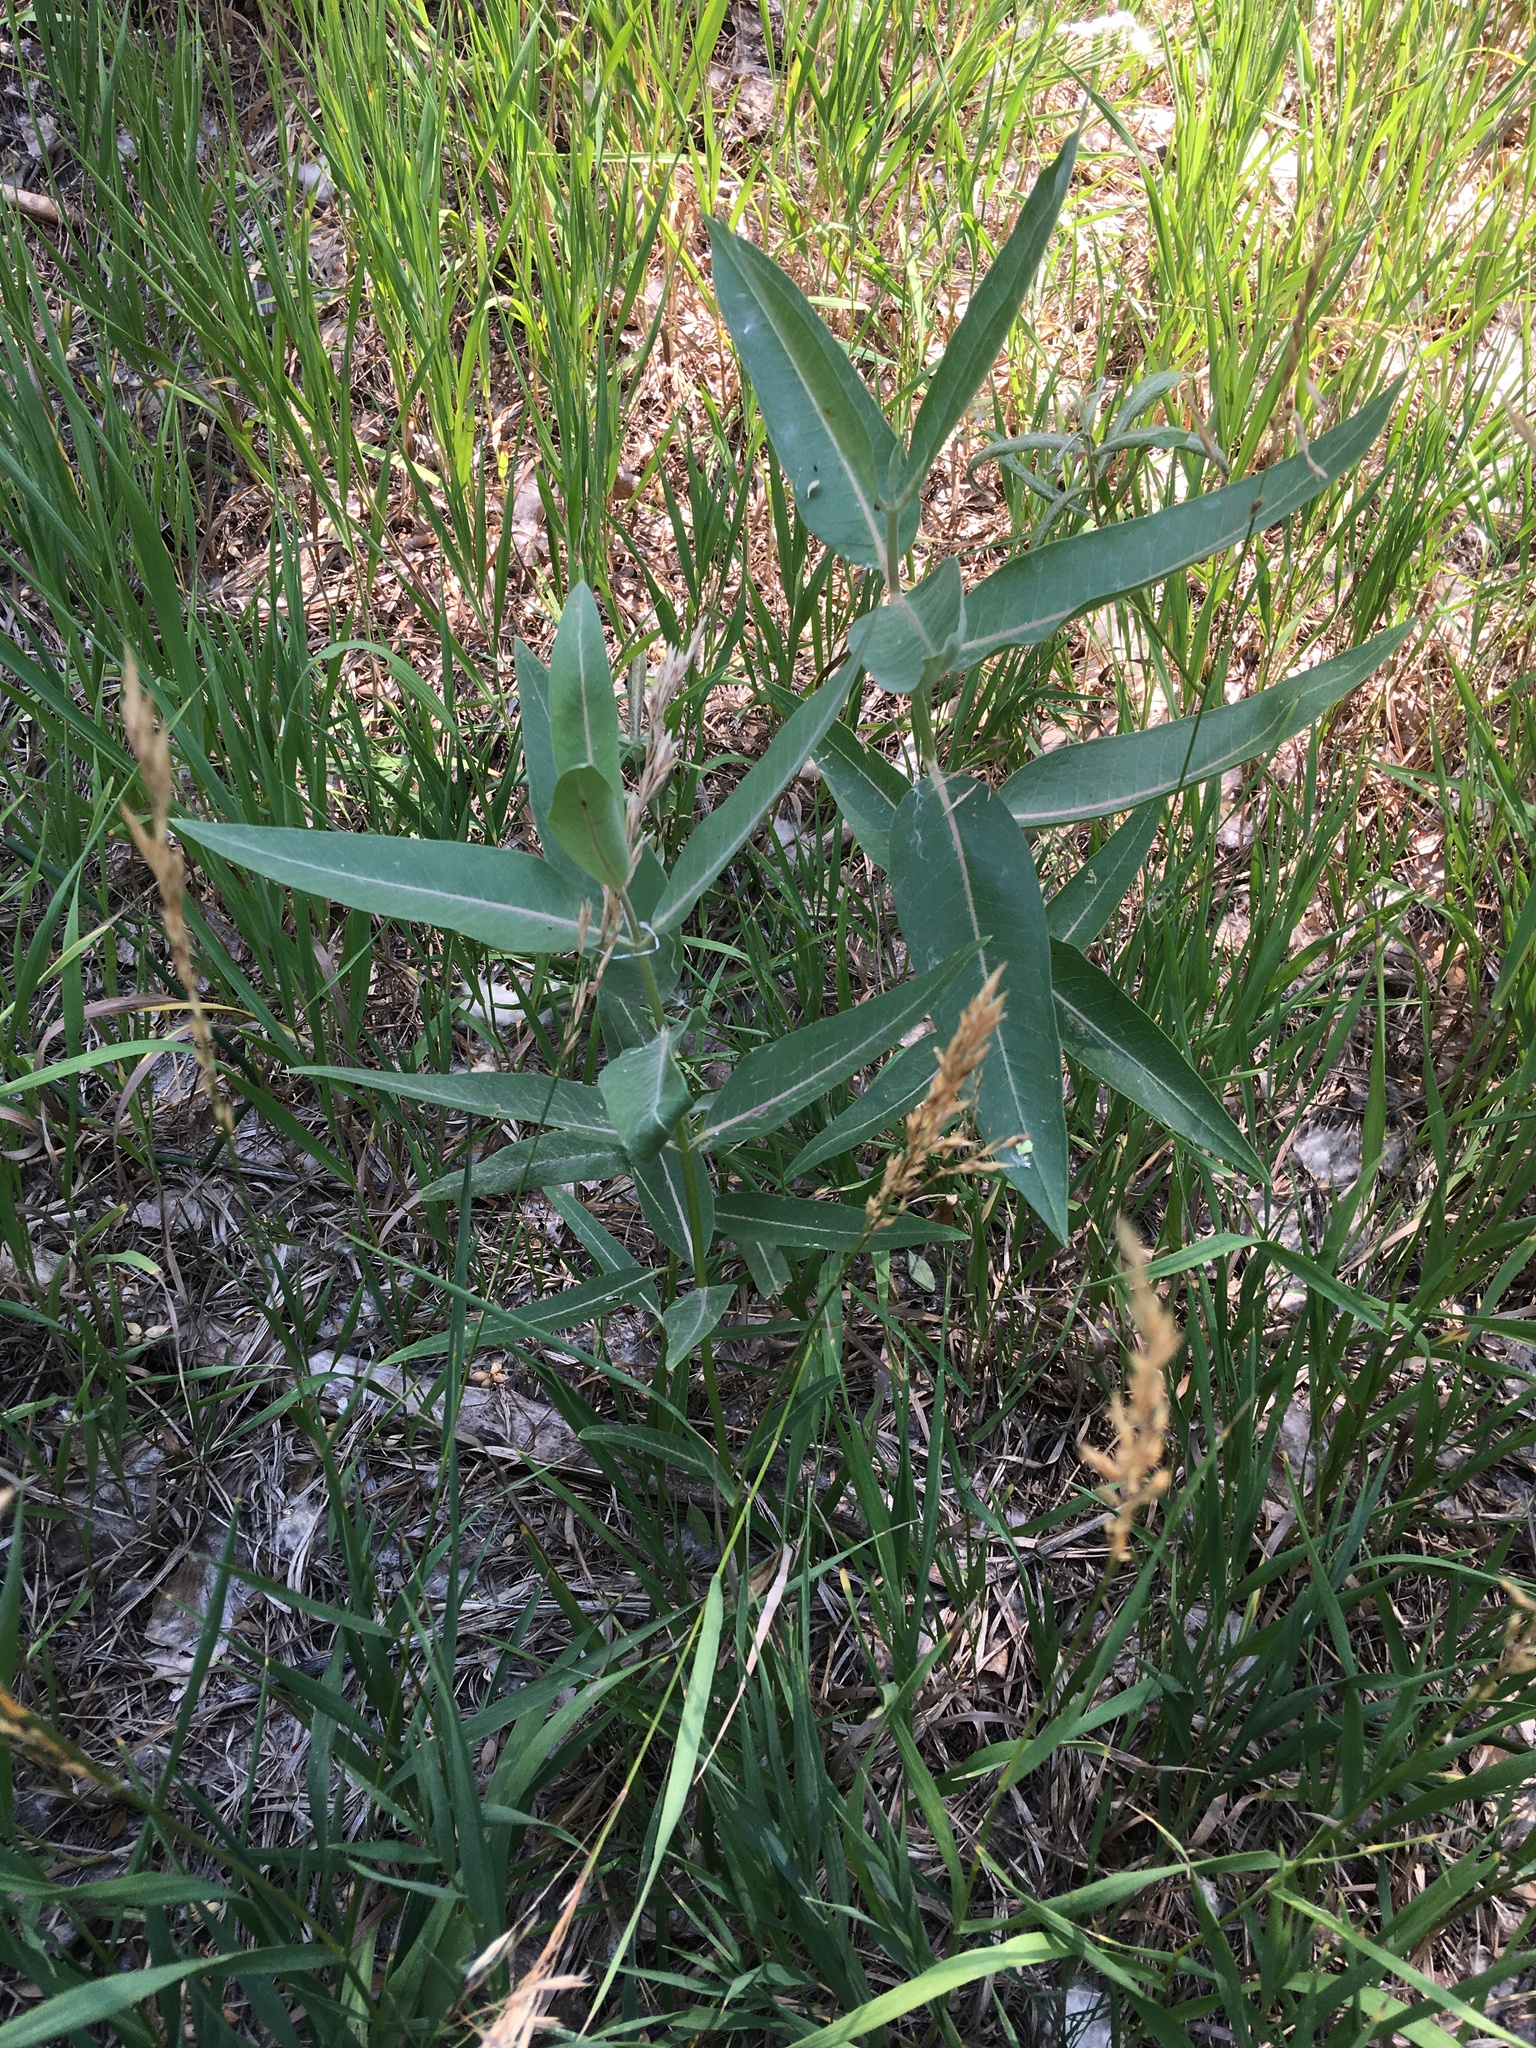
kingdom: Plantae
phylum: Tracheophyta
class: Magnoliopsida
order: Gentianales
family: Apocynaceae
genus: Asclepias
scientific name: Asclepias speciosa
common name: Showy milkweed
